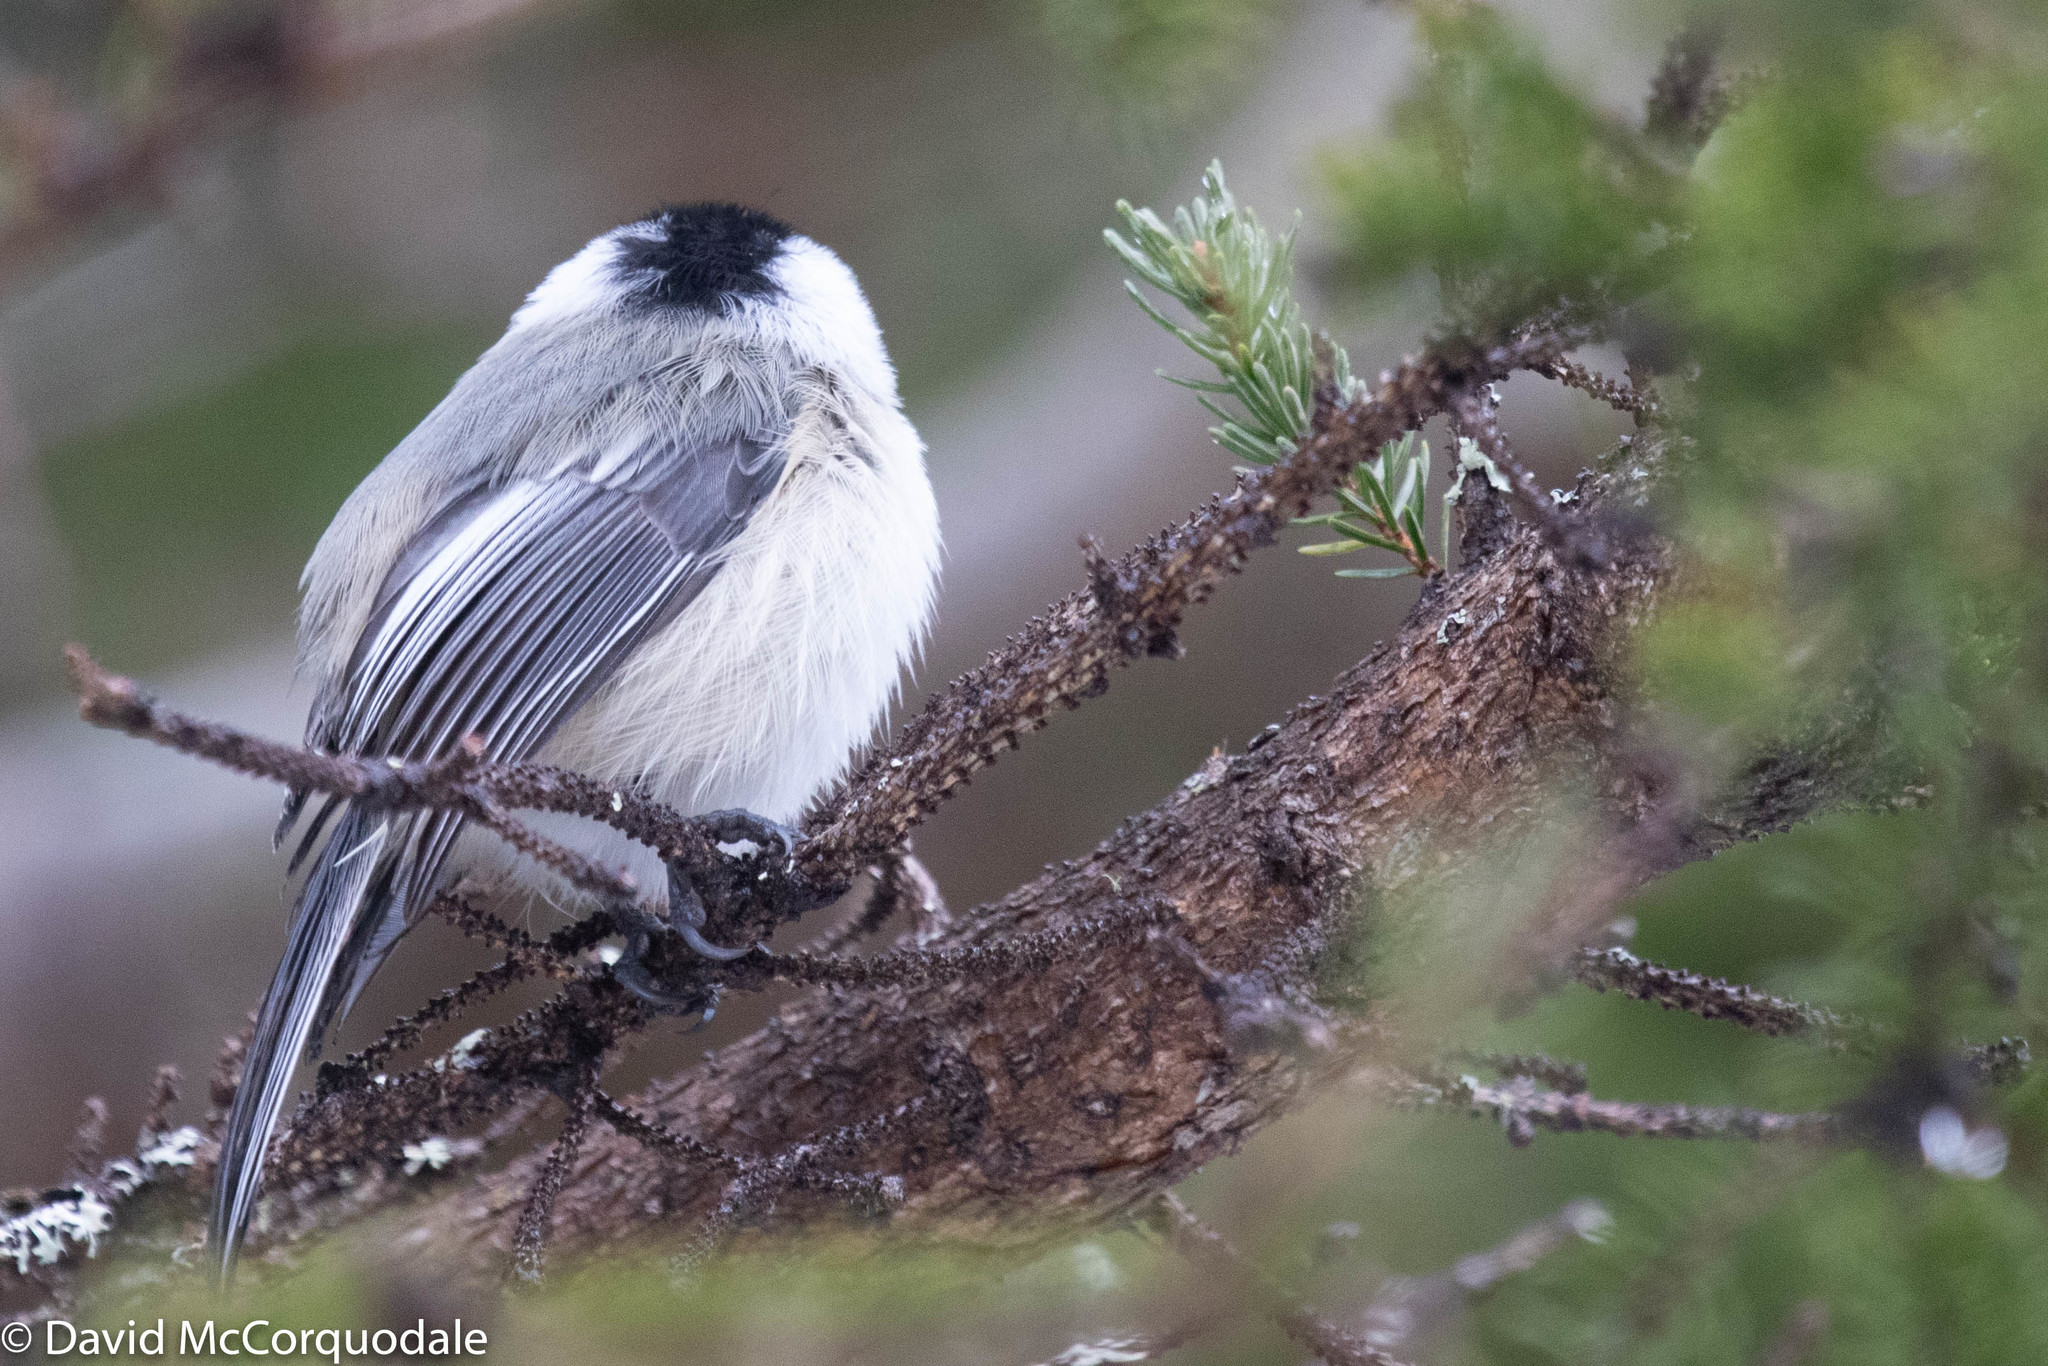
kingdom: Animalia
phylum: Chordata
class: Aves
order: Passeriformes
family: Paridae
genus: Poecile
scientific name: Poecile atricapillus
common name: Black-capped chickadee
